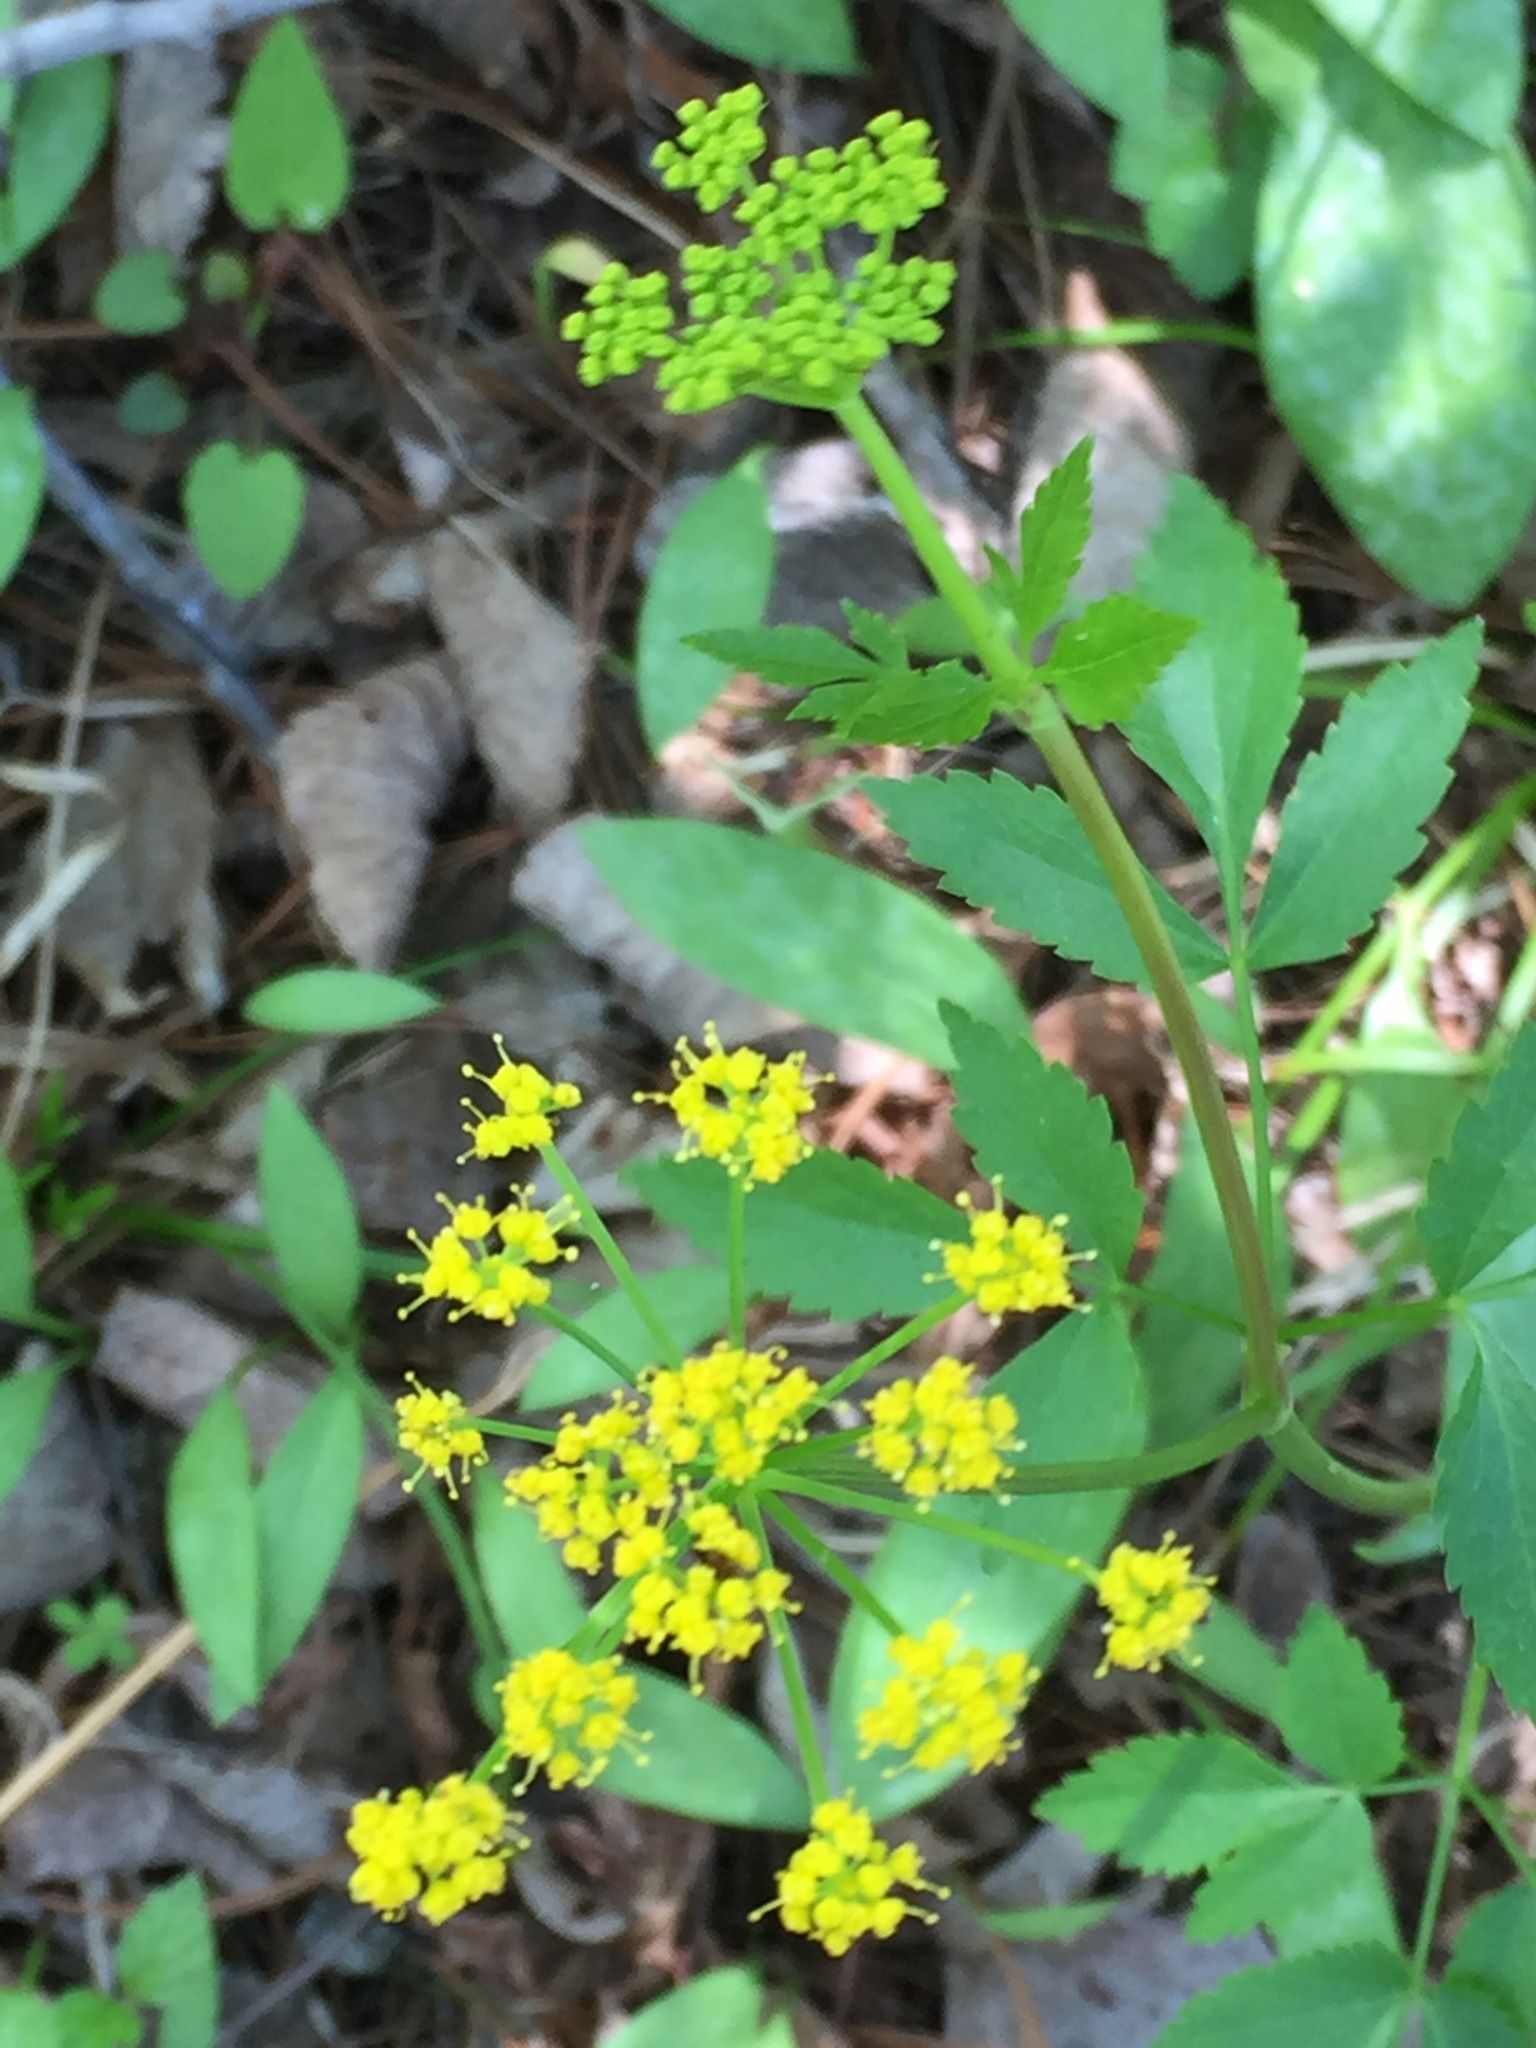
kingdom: Plantae
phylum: Tracheophyta
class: Magnoliopsida
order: Apiales
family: Apiaceae
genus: Zizia
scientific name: Zizia aurea
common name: Golden alexanders
